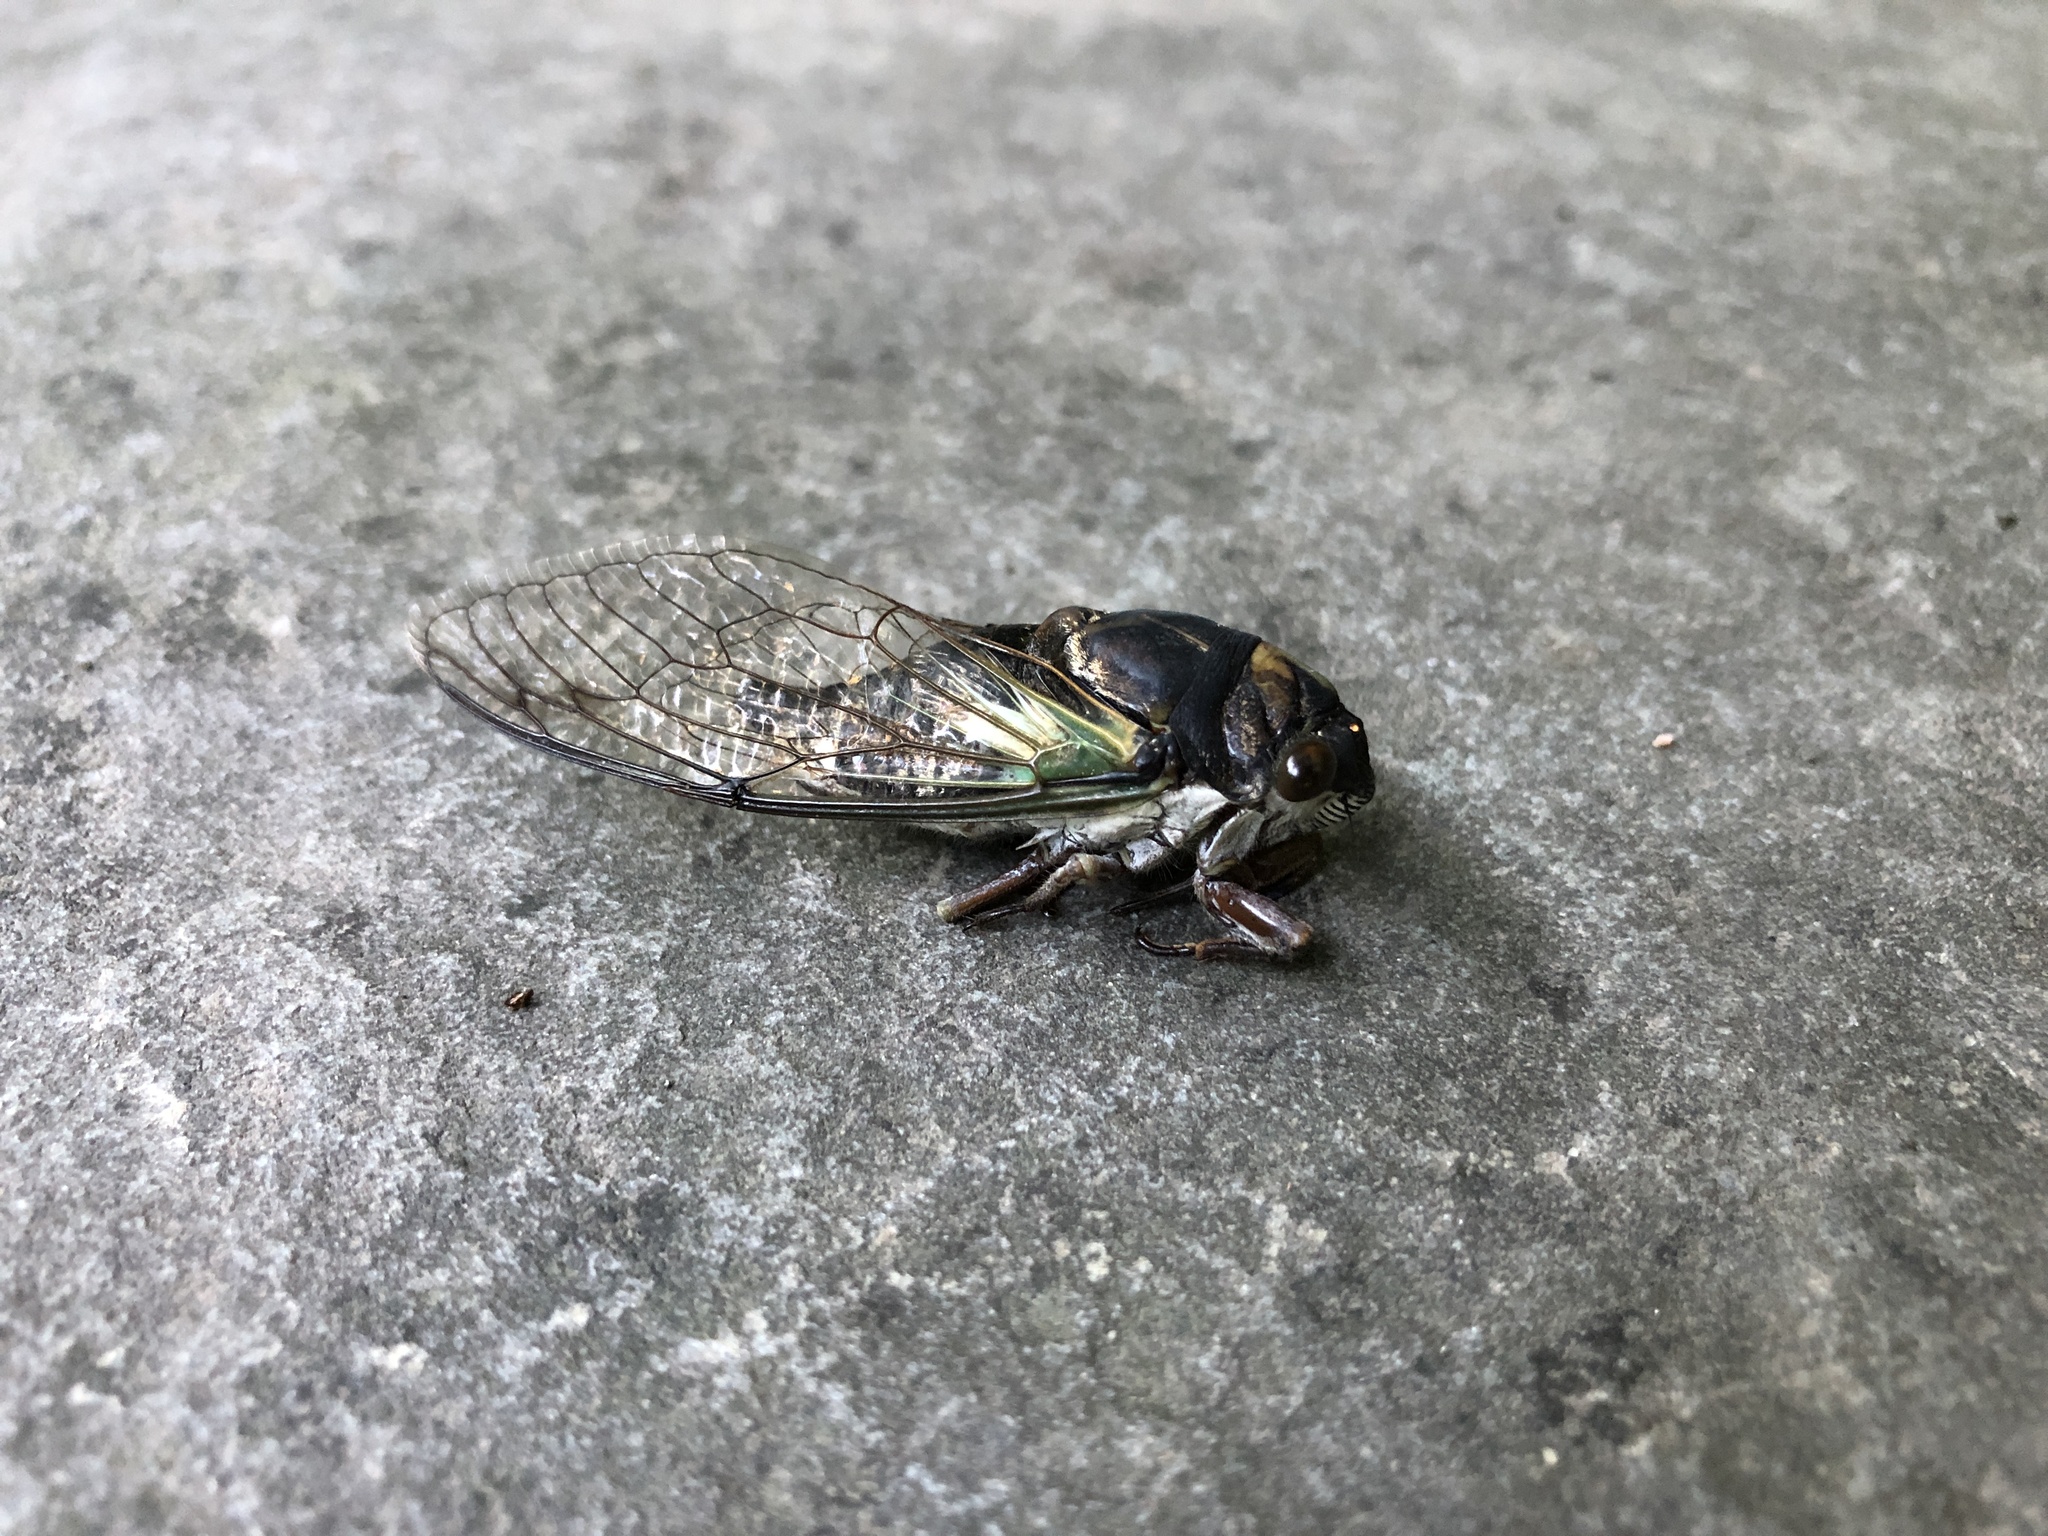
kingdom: Animalia
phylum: Arthropoda
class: Insecta
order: Hemiptera
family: Cicadidae
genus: Neotibicen
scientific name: Neotibicen lyricen
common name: Lyric cicada
